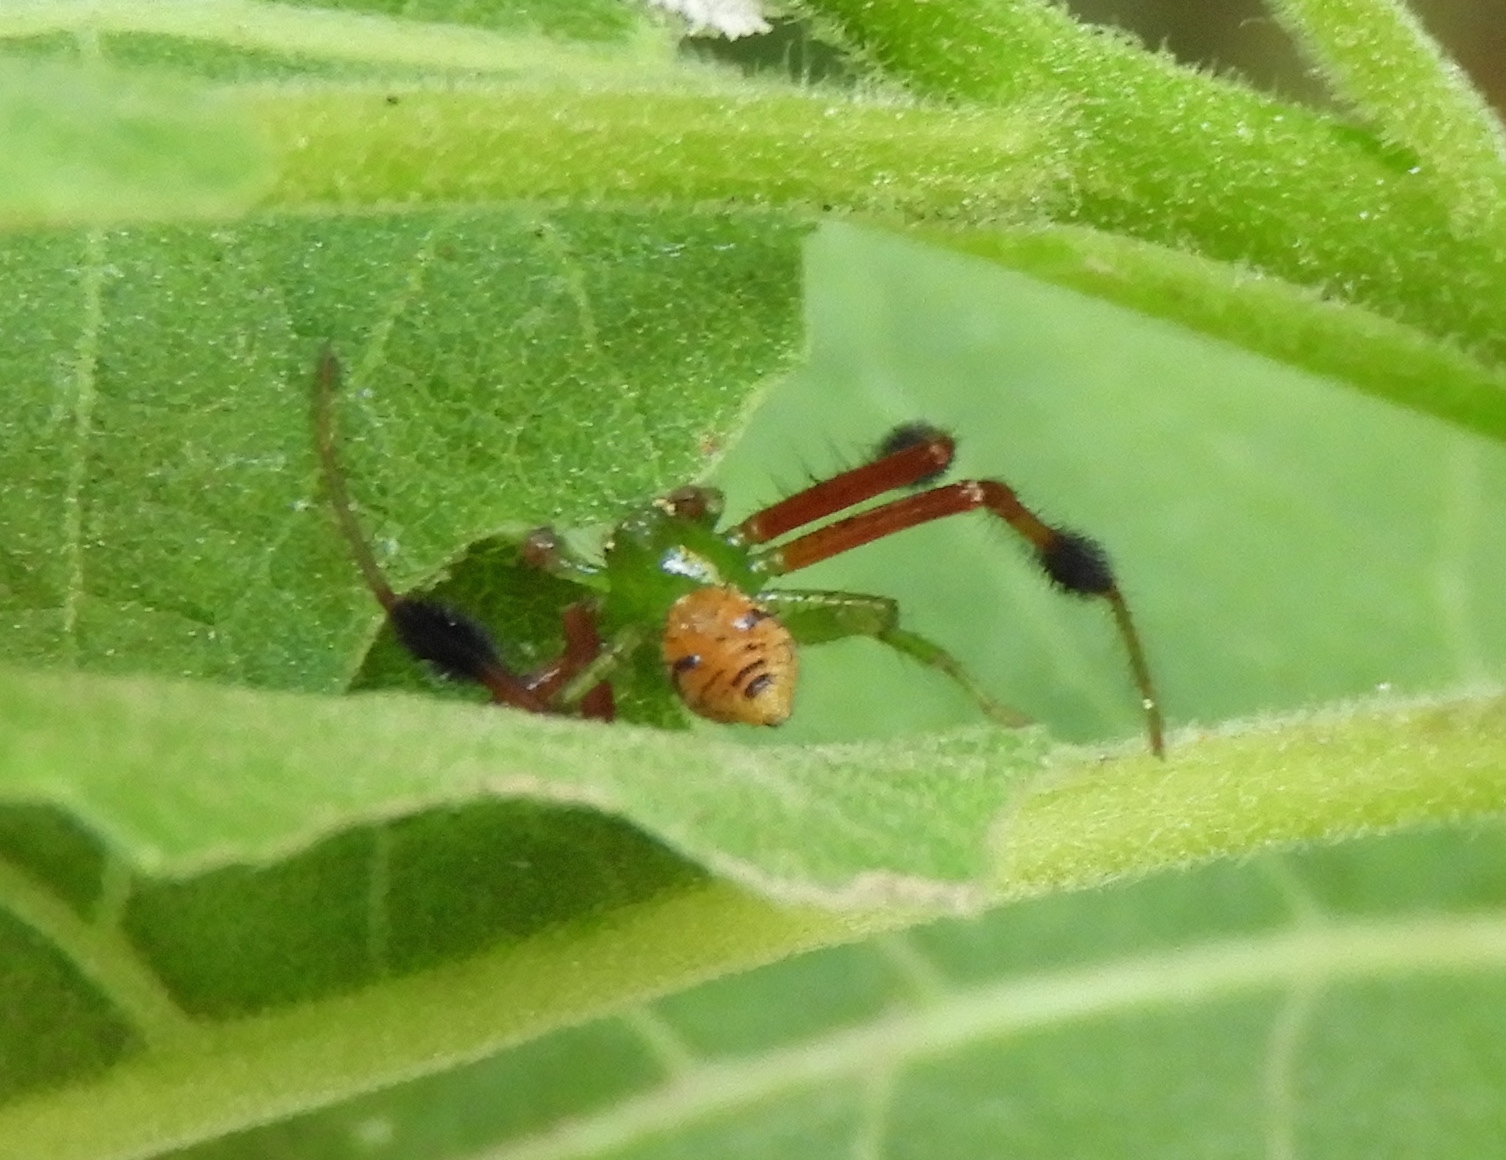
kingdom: Animalia
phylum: Arthropoda
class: Arachnida
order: Araneae
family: Thomisidae
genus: Parasynema
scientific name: Parasynema cirripes
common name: Crab spiders
